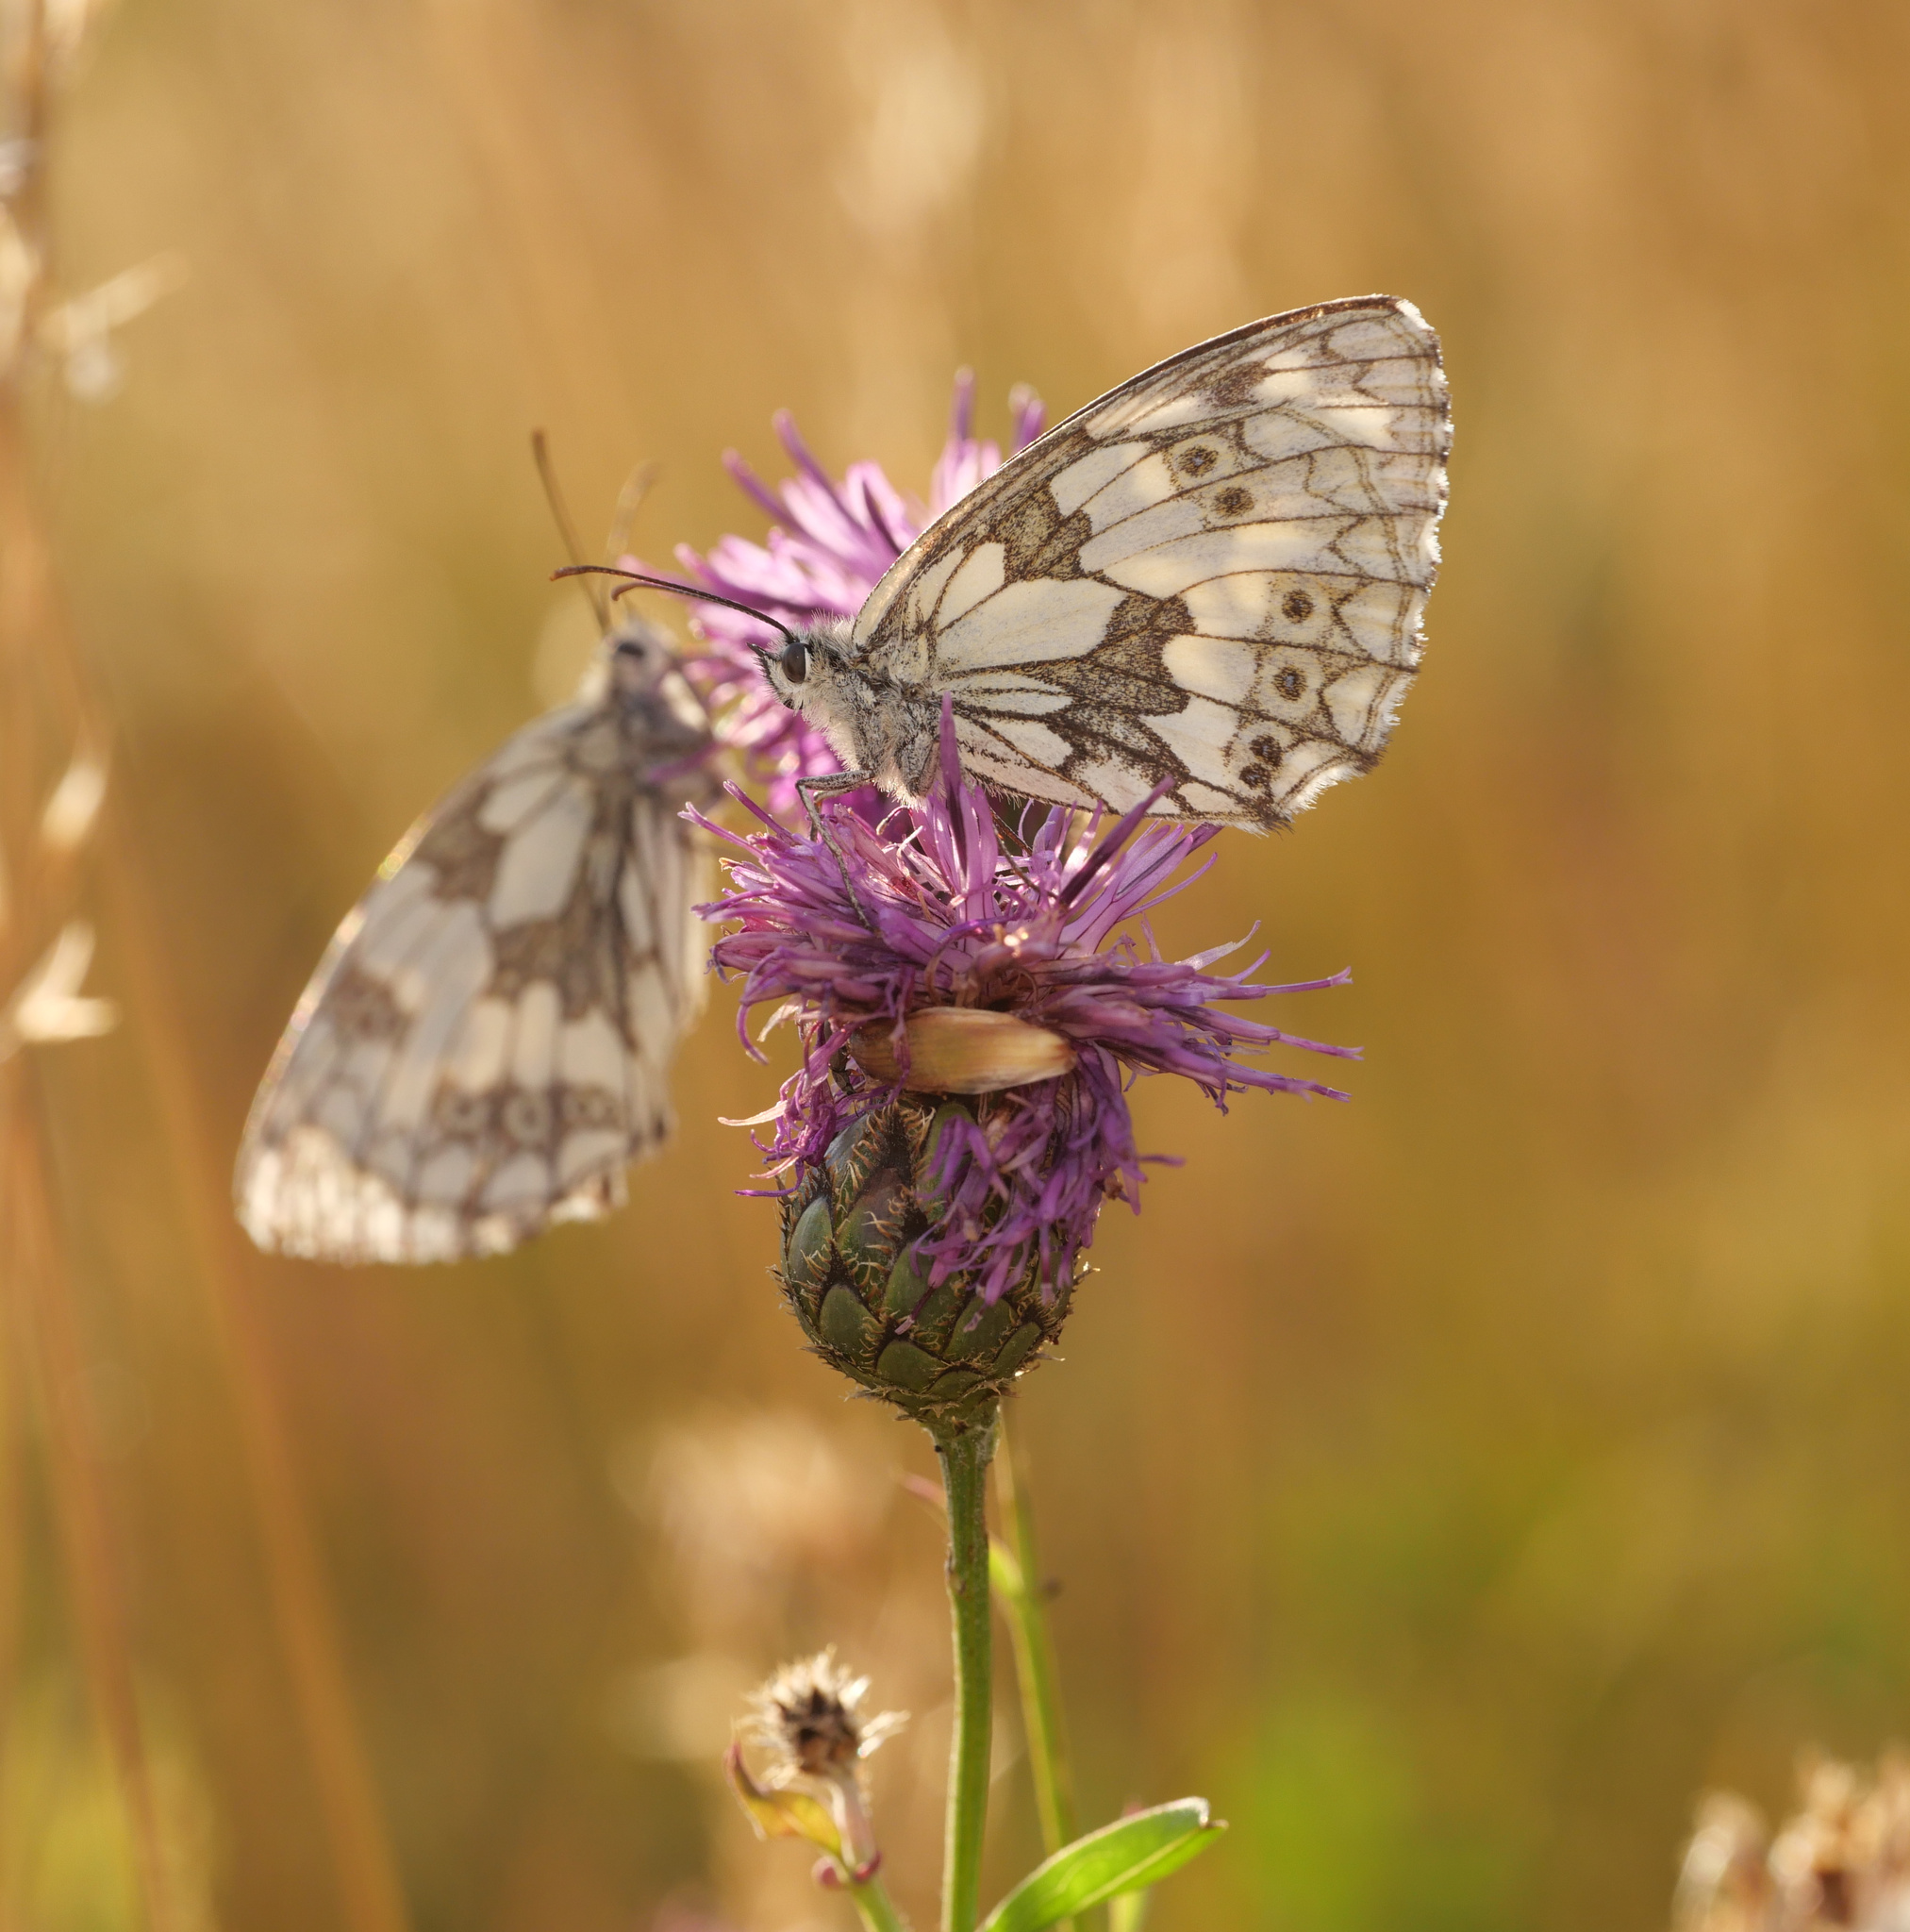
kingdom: Animalia
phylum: Arthropoda
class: Insecta
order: Lepidoptera
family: Nymphalidae
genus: Melanargia
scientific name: Melanargia galathea
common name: Marbled white
